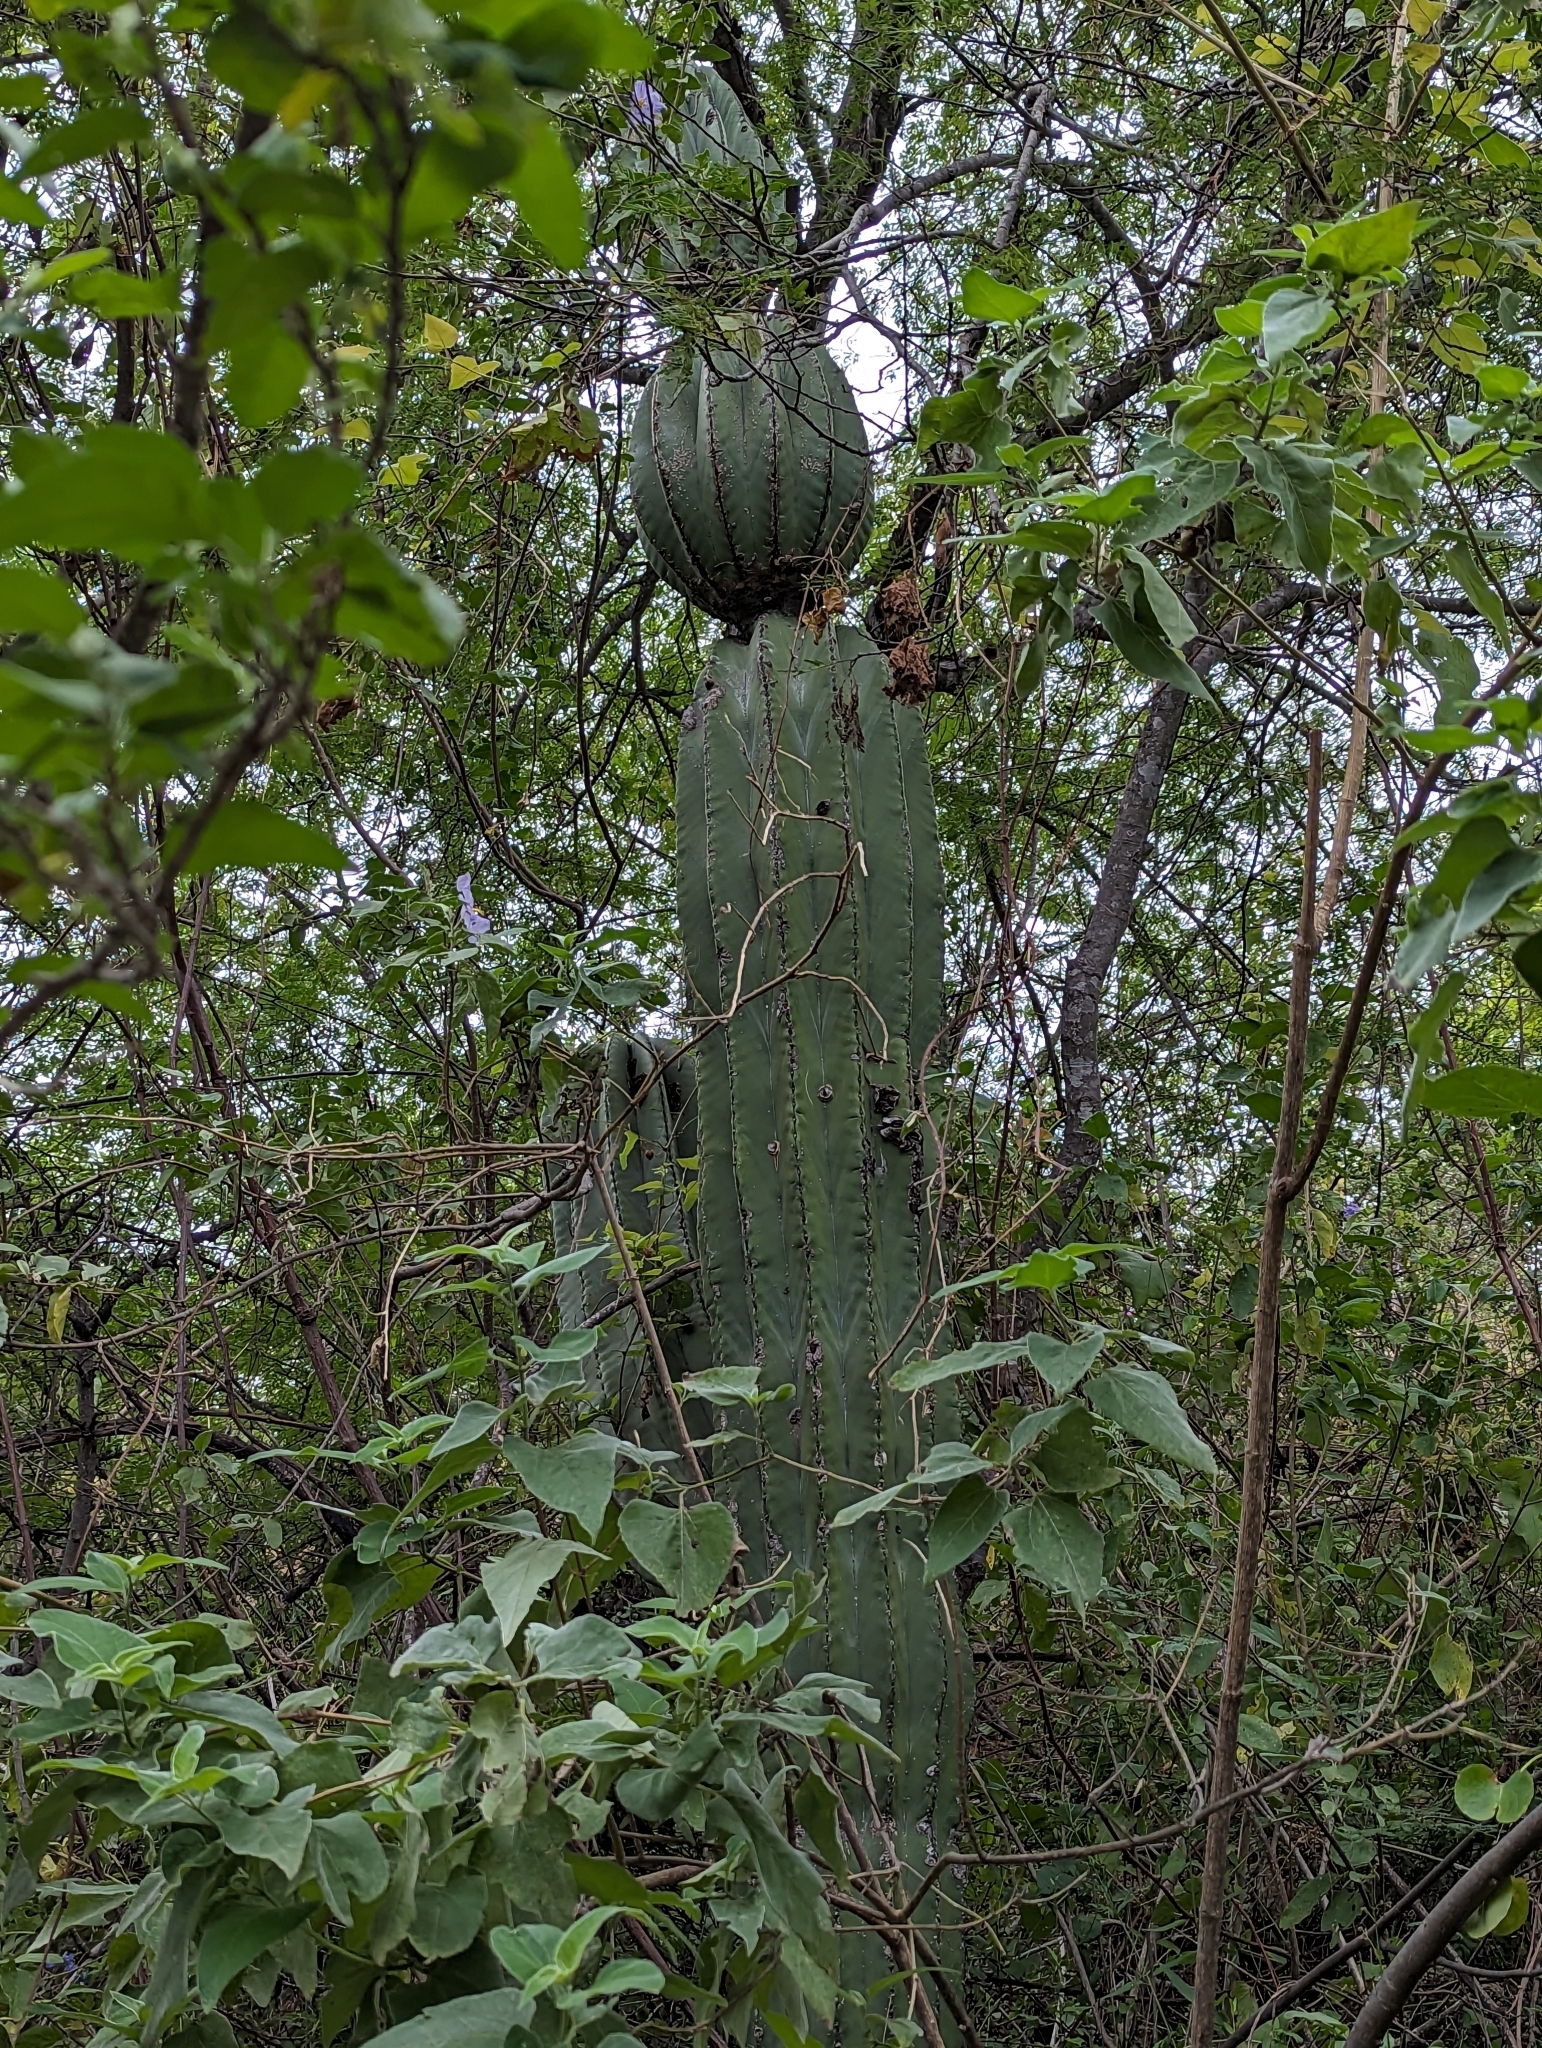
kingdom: Plantae
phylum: Tracheophyta
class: Magnoliopsida
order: Caryophyllales
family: Cactaceae
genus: Pachycereus
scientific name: Pachycereus pringlei
